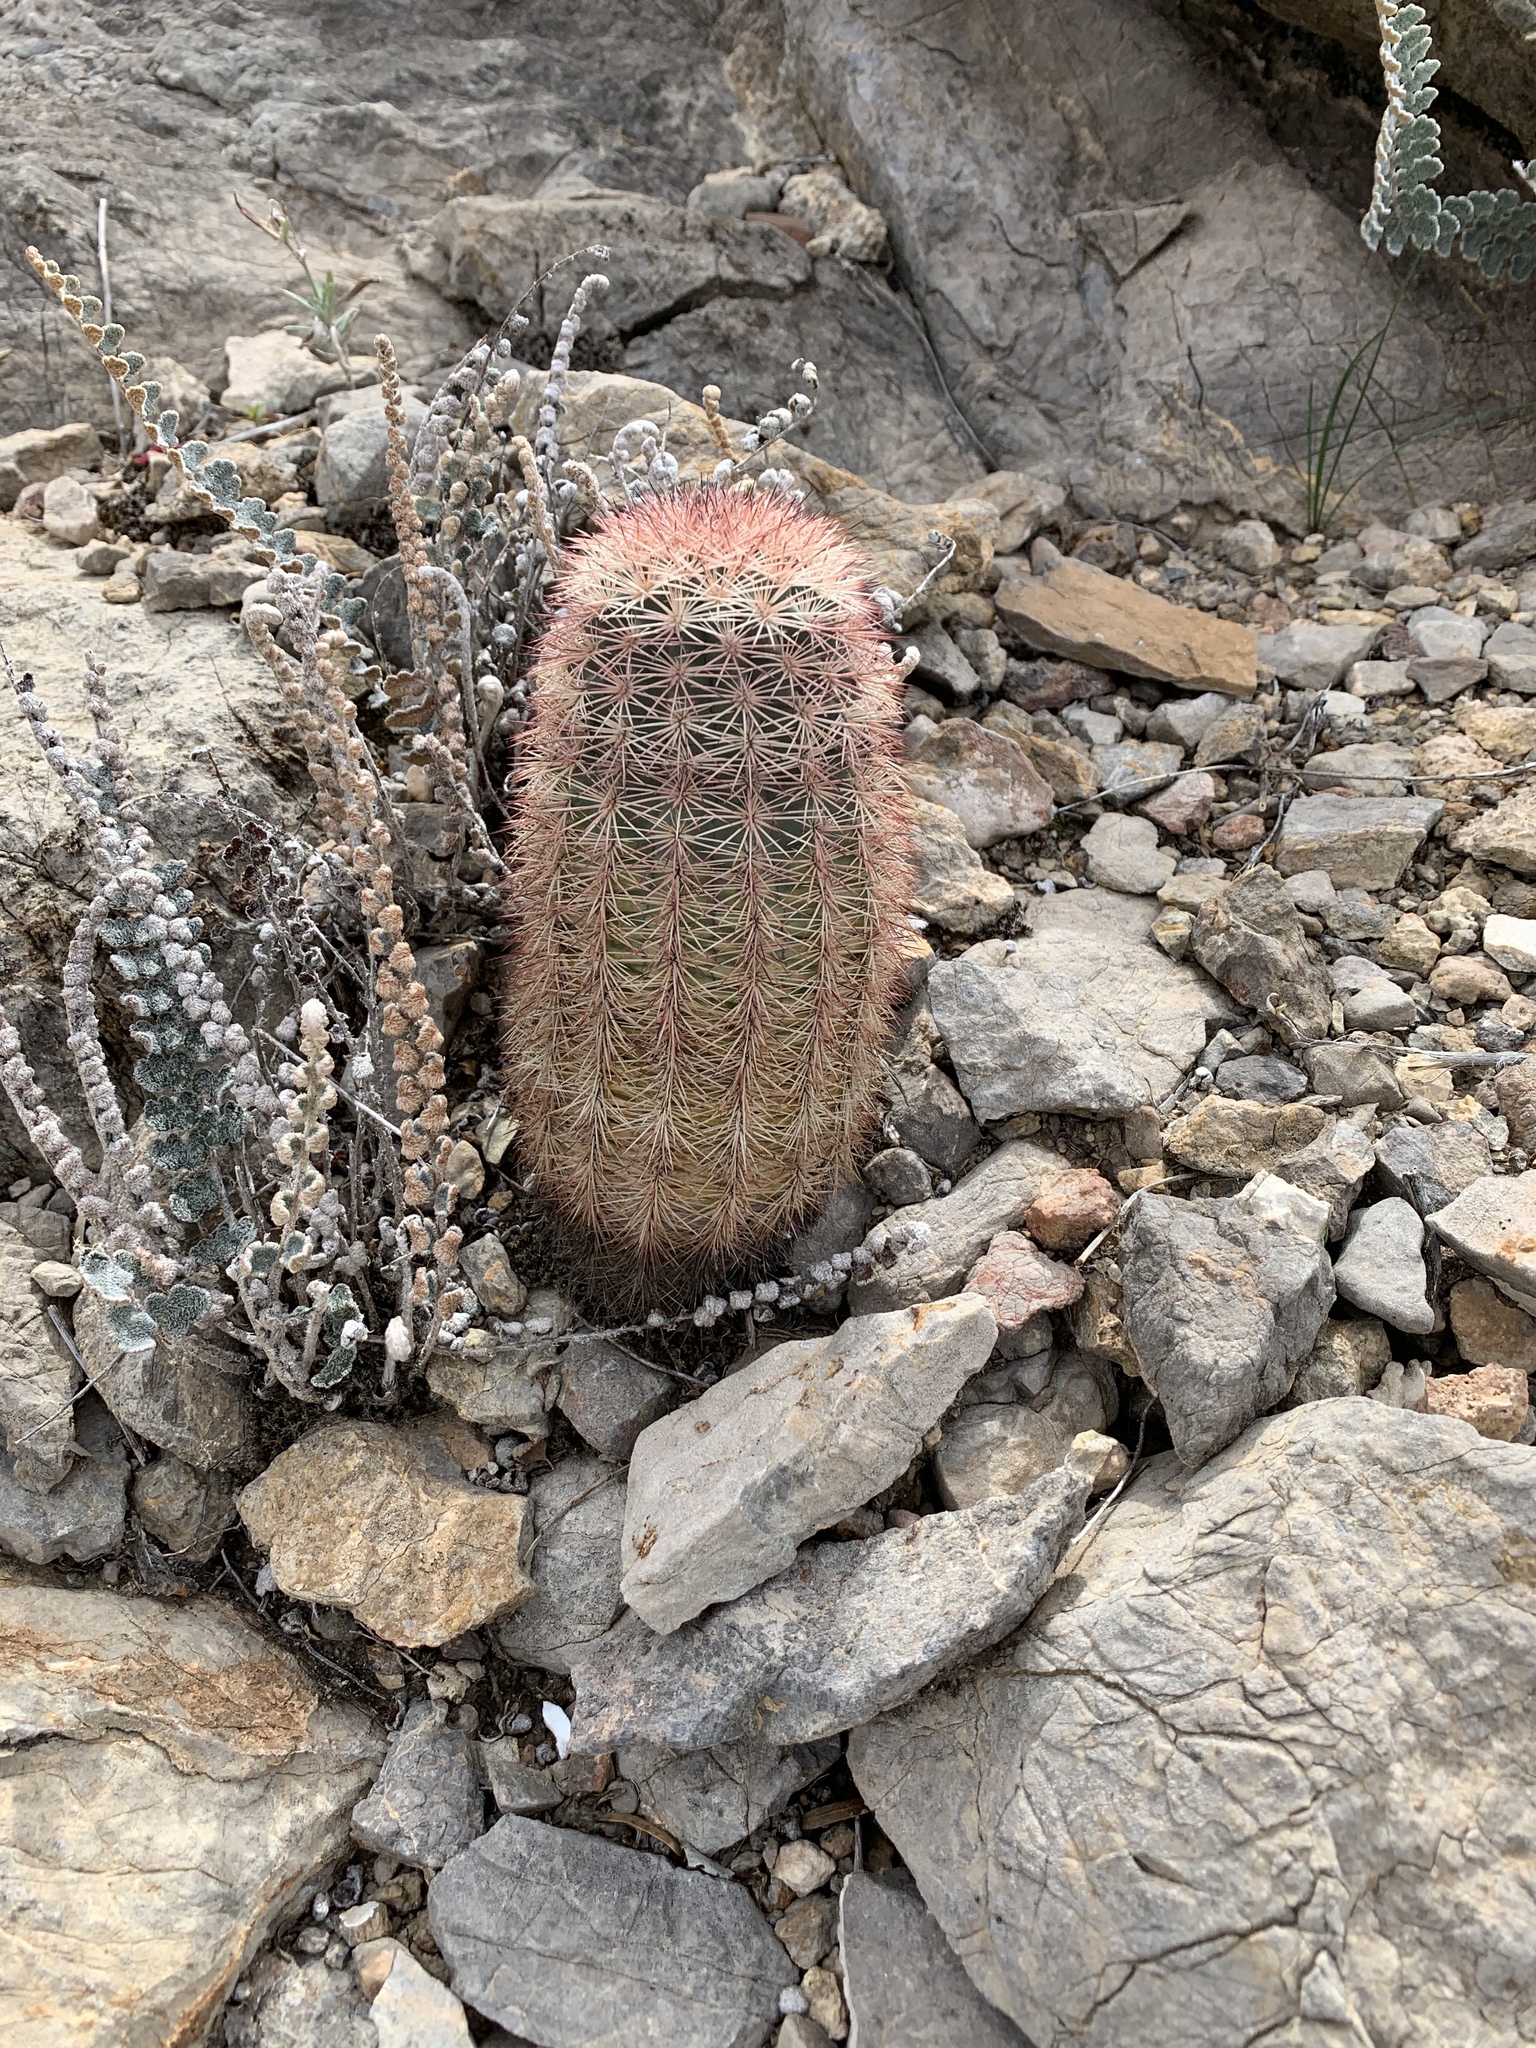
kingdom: Plantae
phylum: Tracheophyta
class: Magnoliopsida
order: Caryophyllales
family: Cactaceae
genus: Echinocereus
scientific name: Echinocereus dasyacanthus
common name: Spiny hedgehog cactus
